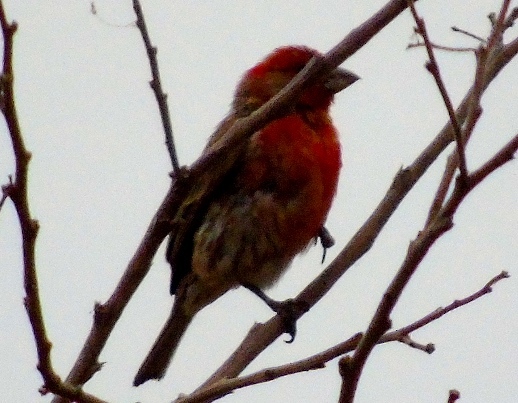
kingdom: Animalia
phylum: Chordata
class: Aves
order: Passeriformes
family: Fringillidae
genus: Haemorhous
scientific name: Haemorhous mexicanus
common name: House finch
